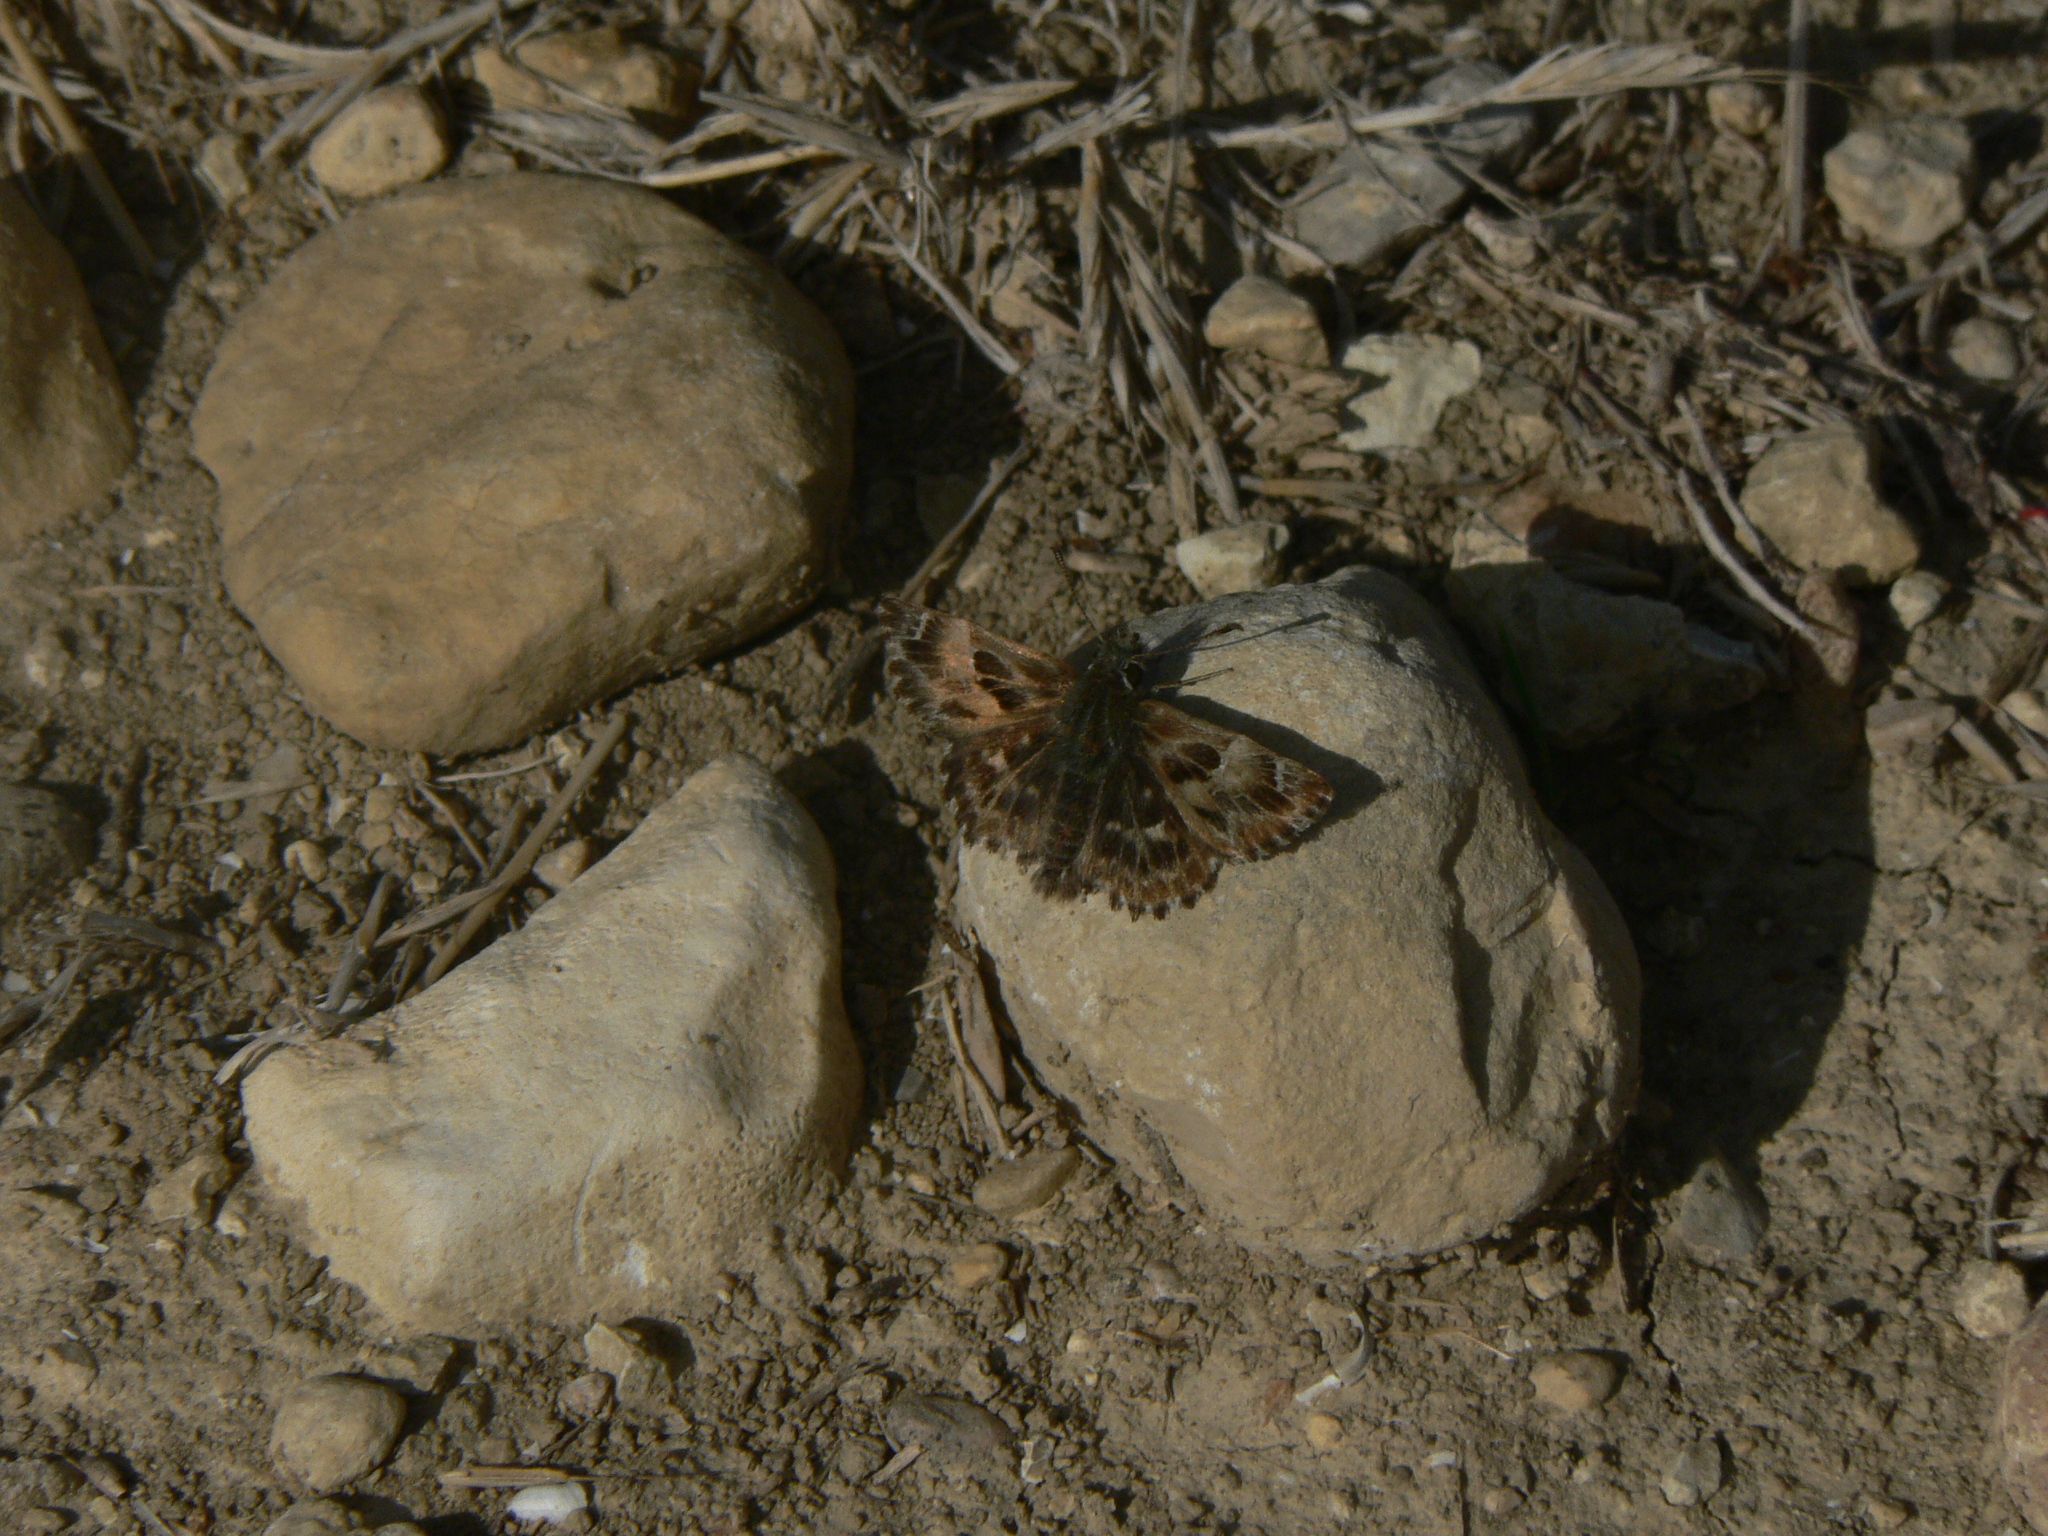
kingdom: Animalia
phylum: Arthropoda
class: Insecta
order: Lepidoptera
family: Hesperiidae
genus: Carcharodus
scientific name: Carcharodus alceae
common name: Mallow skipper
